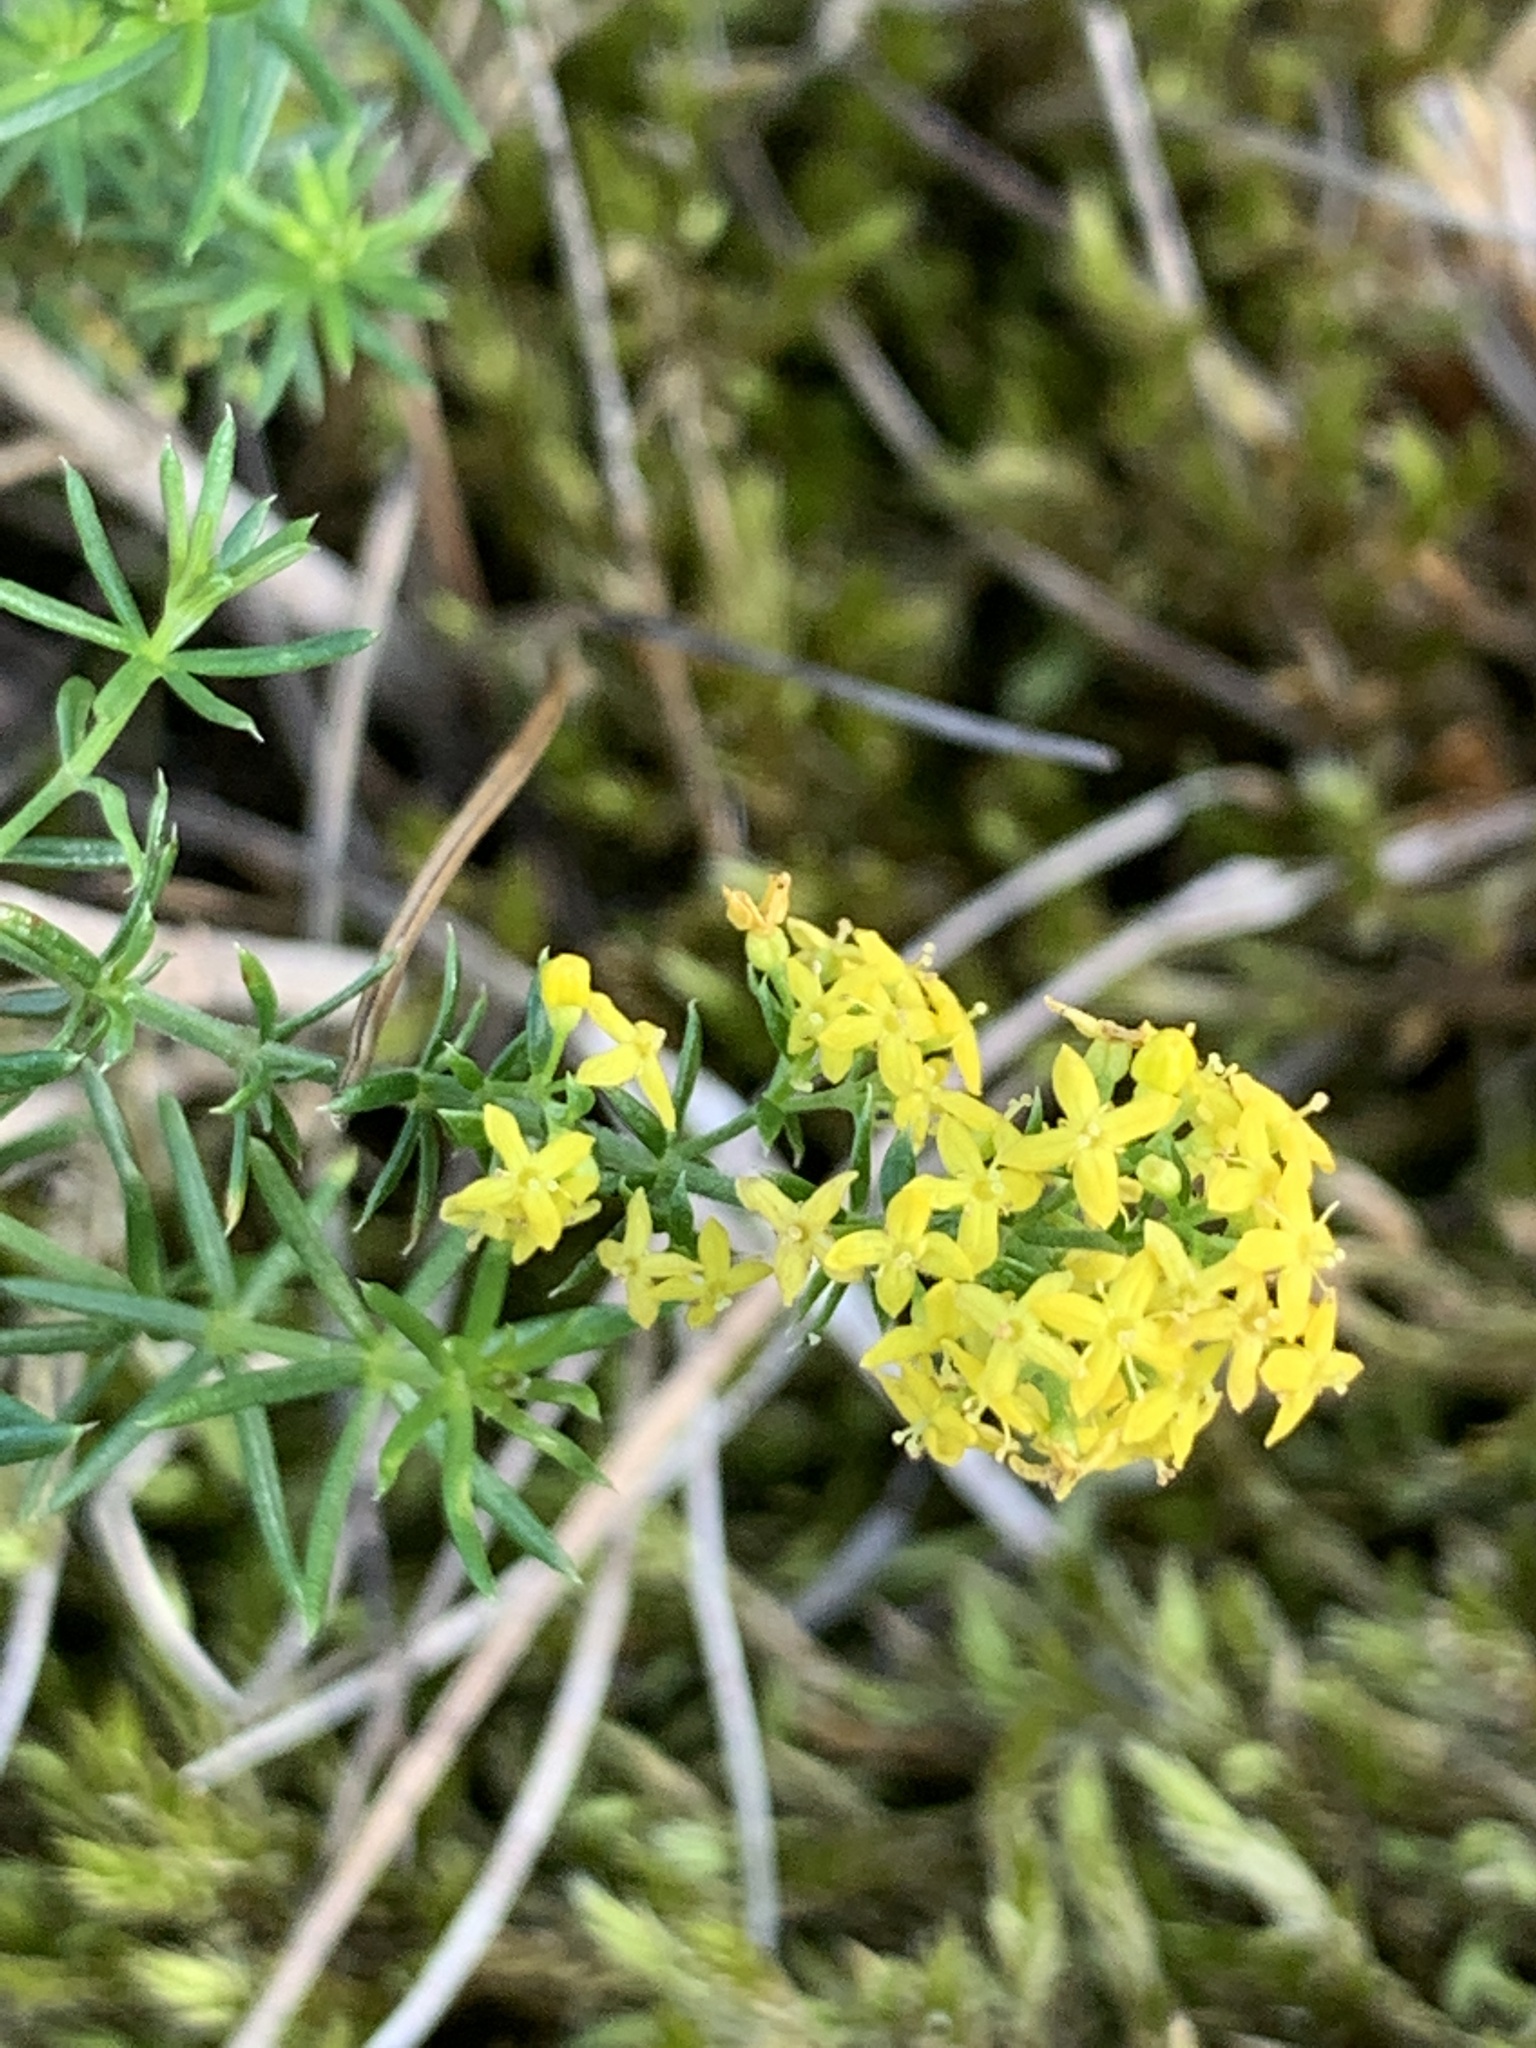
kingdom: Plantae
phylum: Tracheophyta
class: Magnoliopsida
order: Gentianales
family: Rubiaceae
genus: Galium
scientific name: Galium verum
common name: Lady's bedstraw
